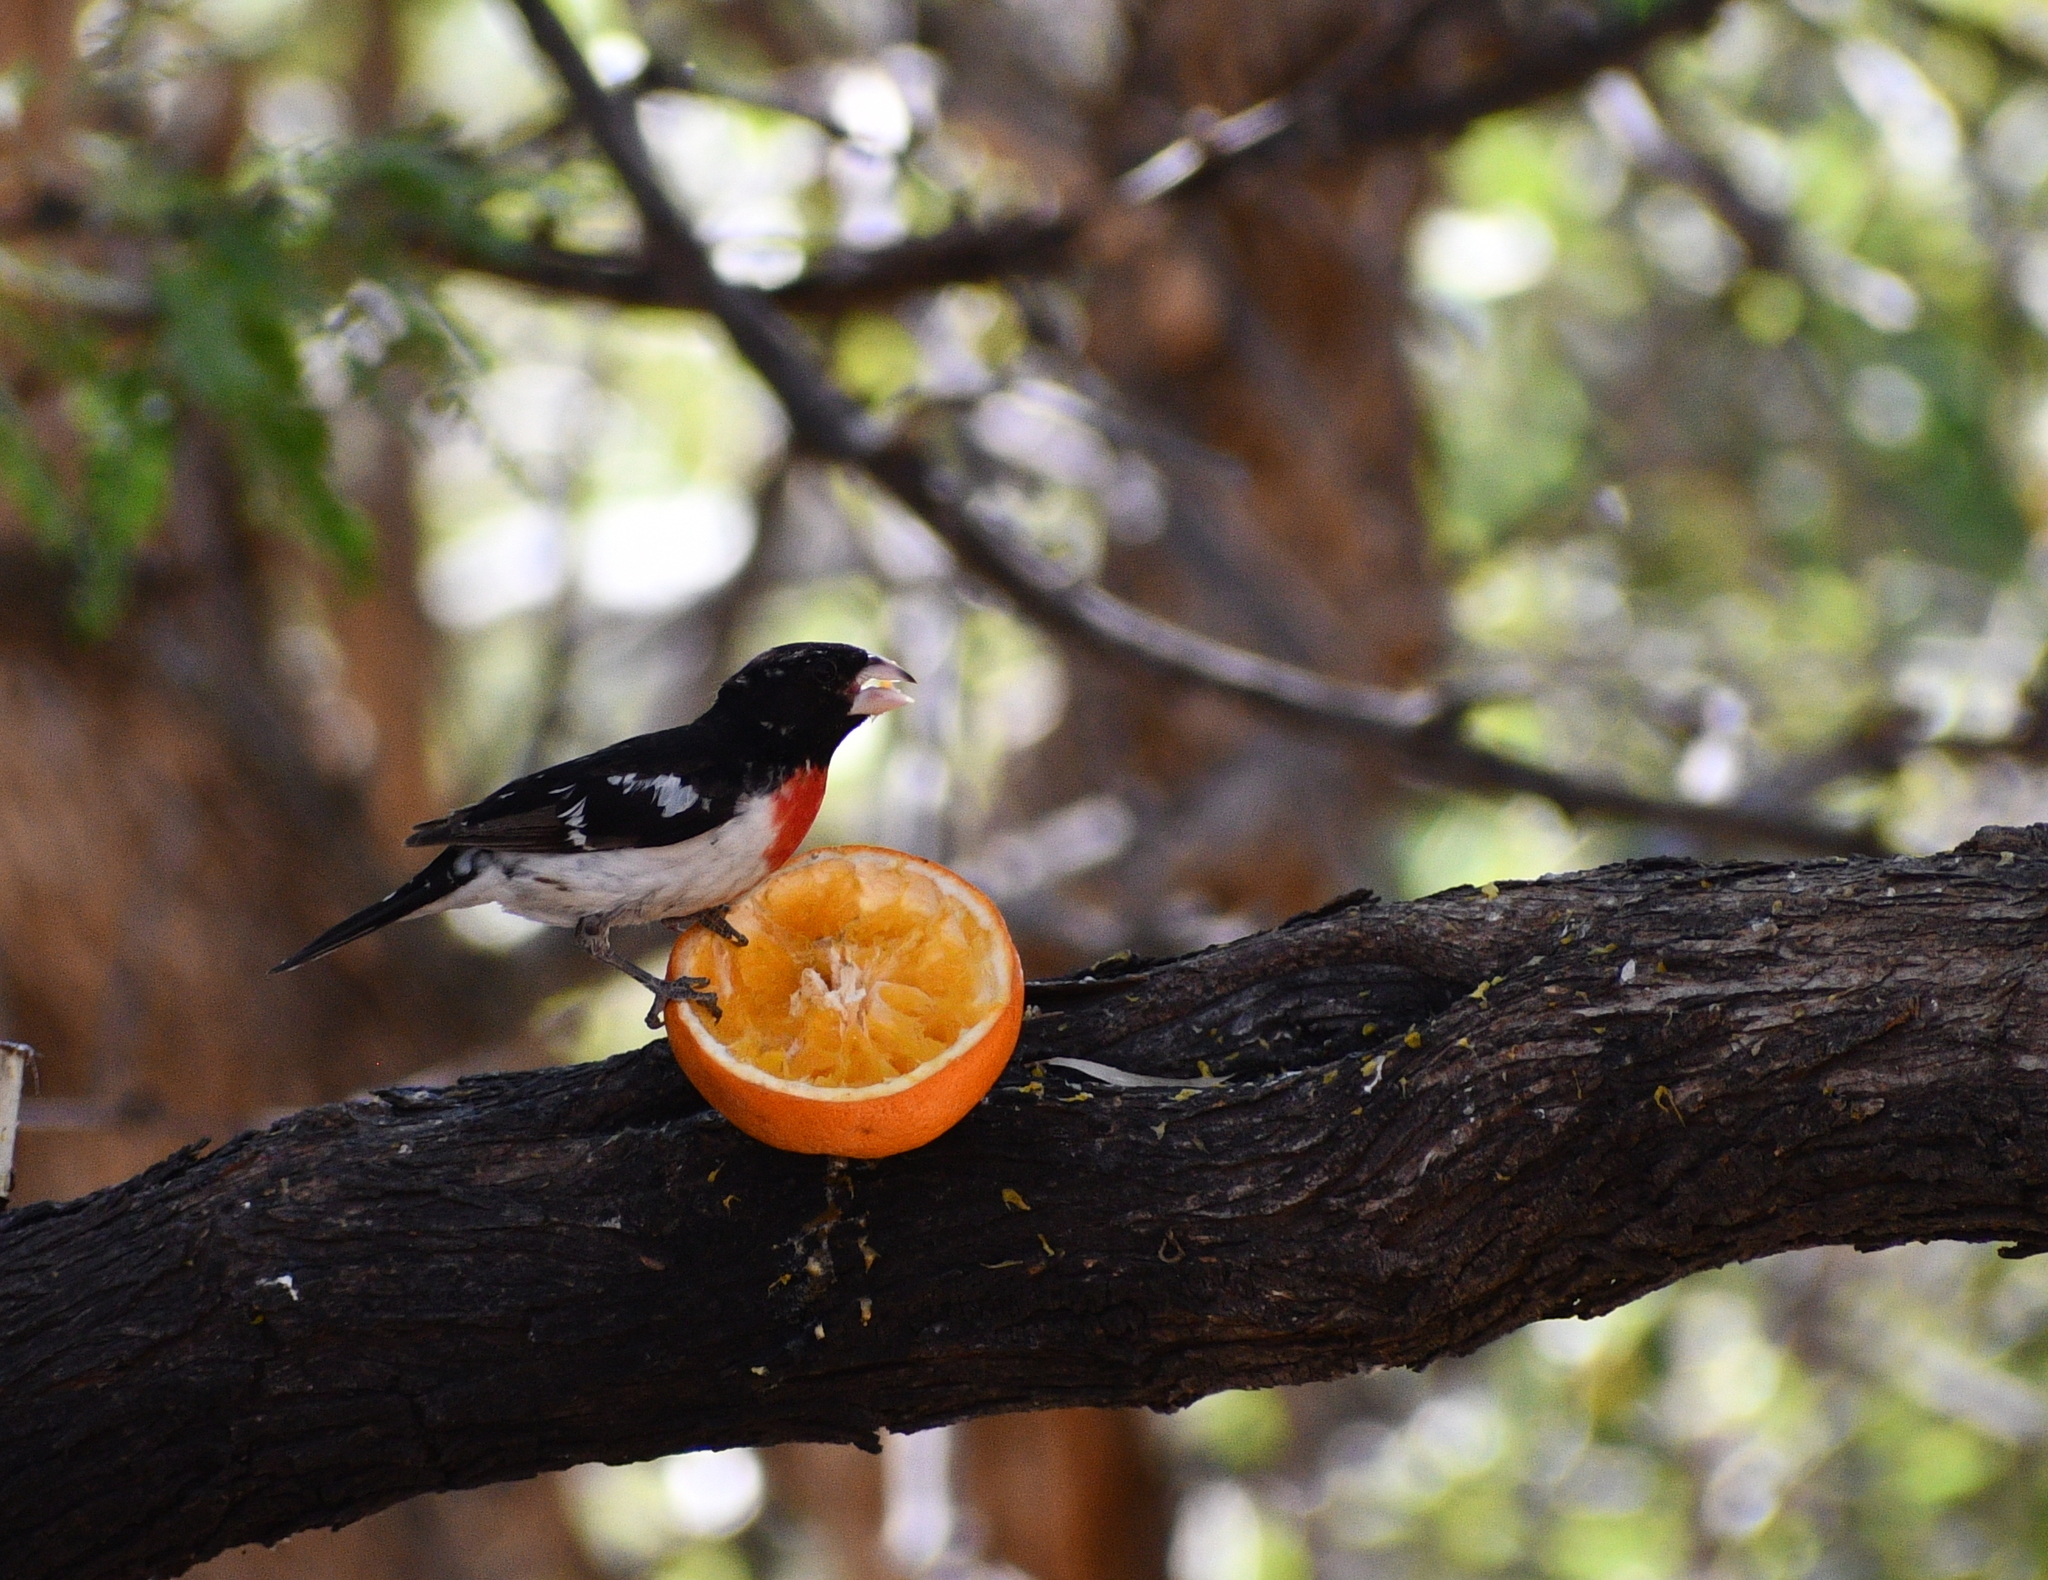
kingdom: Animalia
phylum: Chordata
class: Aves
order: Passeriformes
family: Cardinalidae
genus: Pheucticus
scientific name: Pheucticus ludovicianus
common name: Rose-breasted grosbeak
